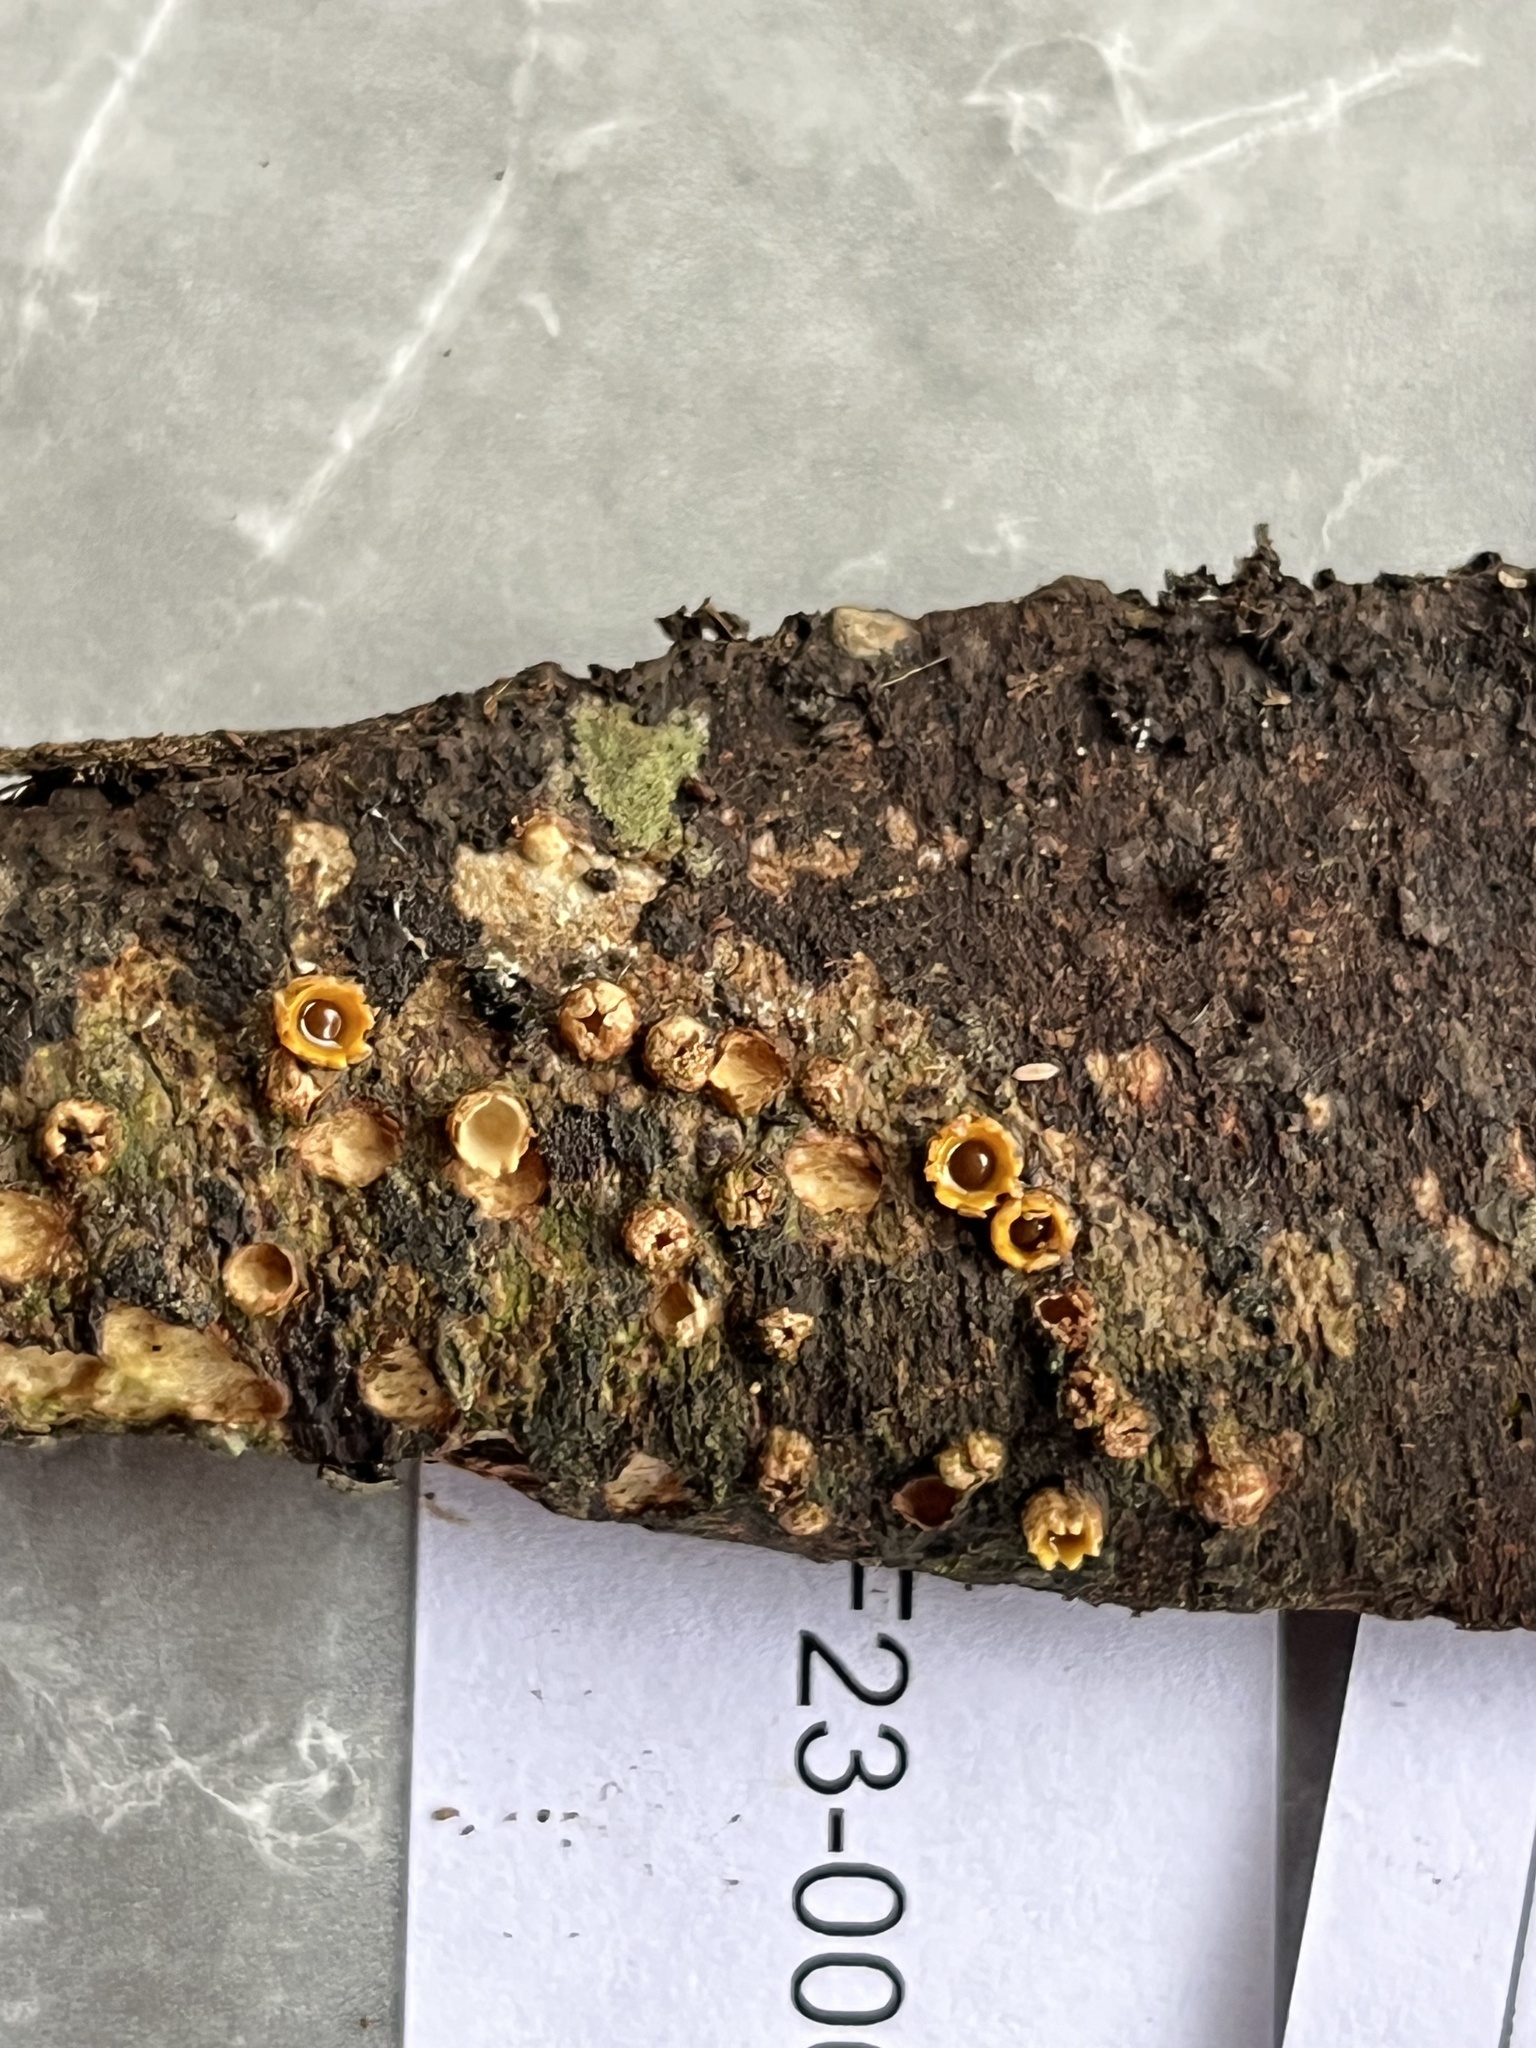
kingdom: Fungi
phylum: Basidiomycota
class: Agaricomycetes
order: Geastrales
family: Geastraceae
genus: Sphaerobolus
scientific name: Sphaerobolus stellatus
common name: Cannon fungus
